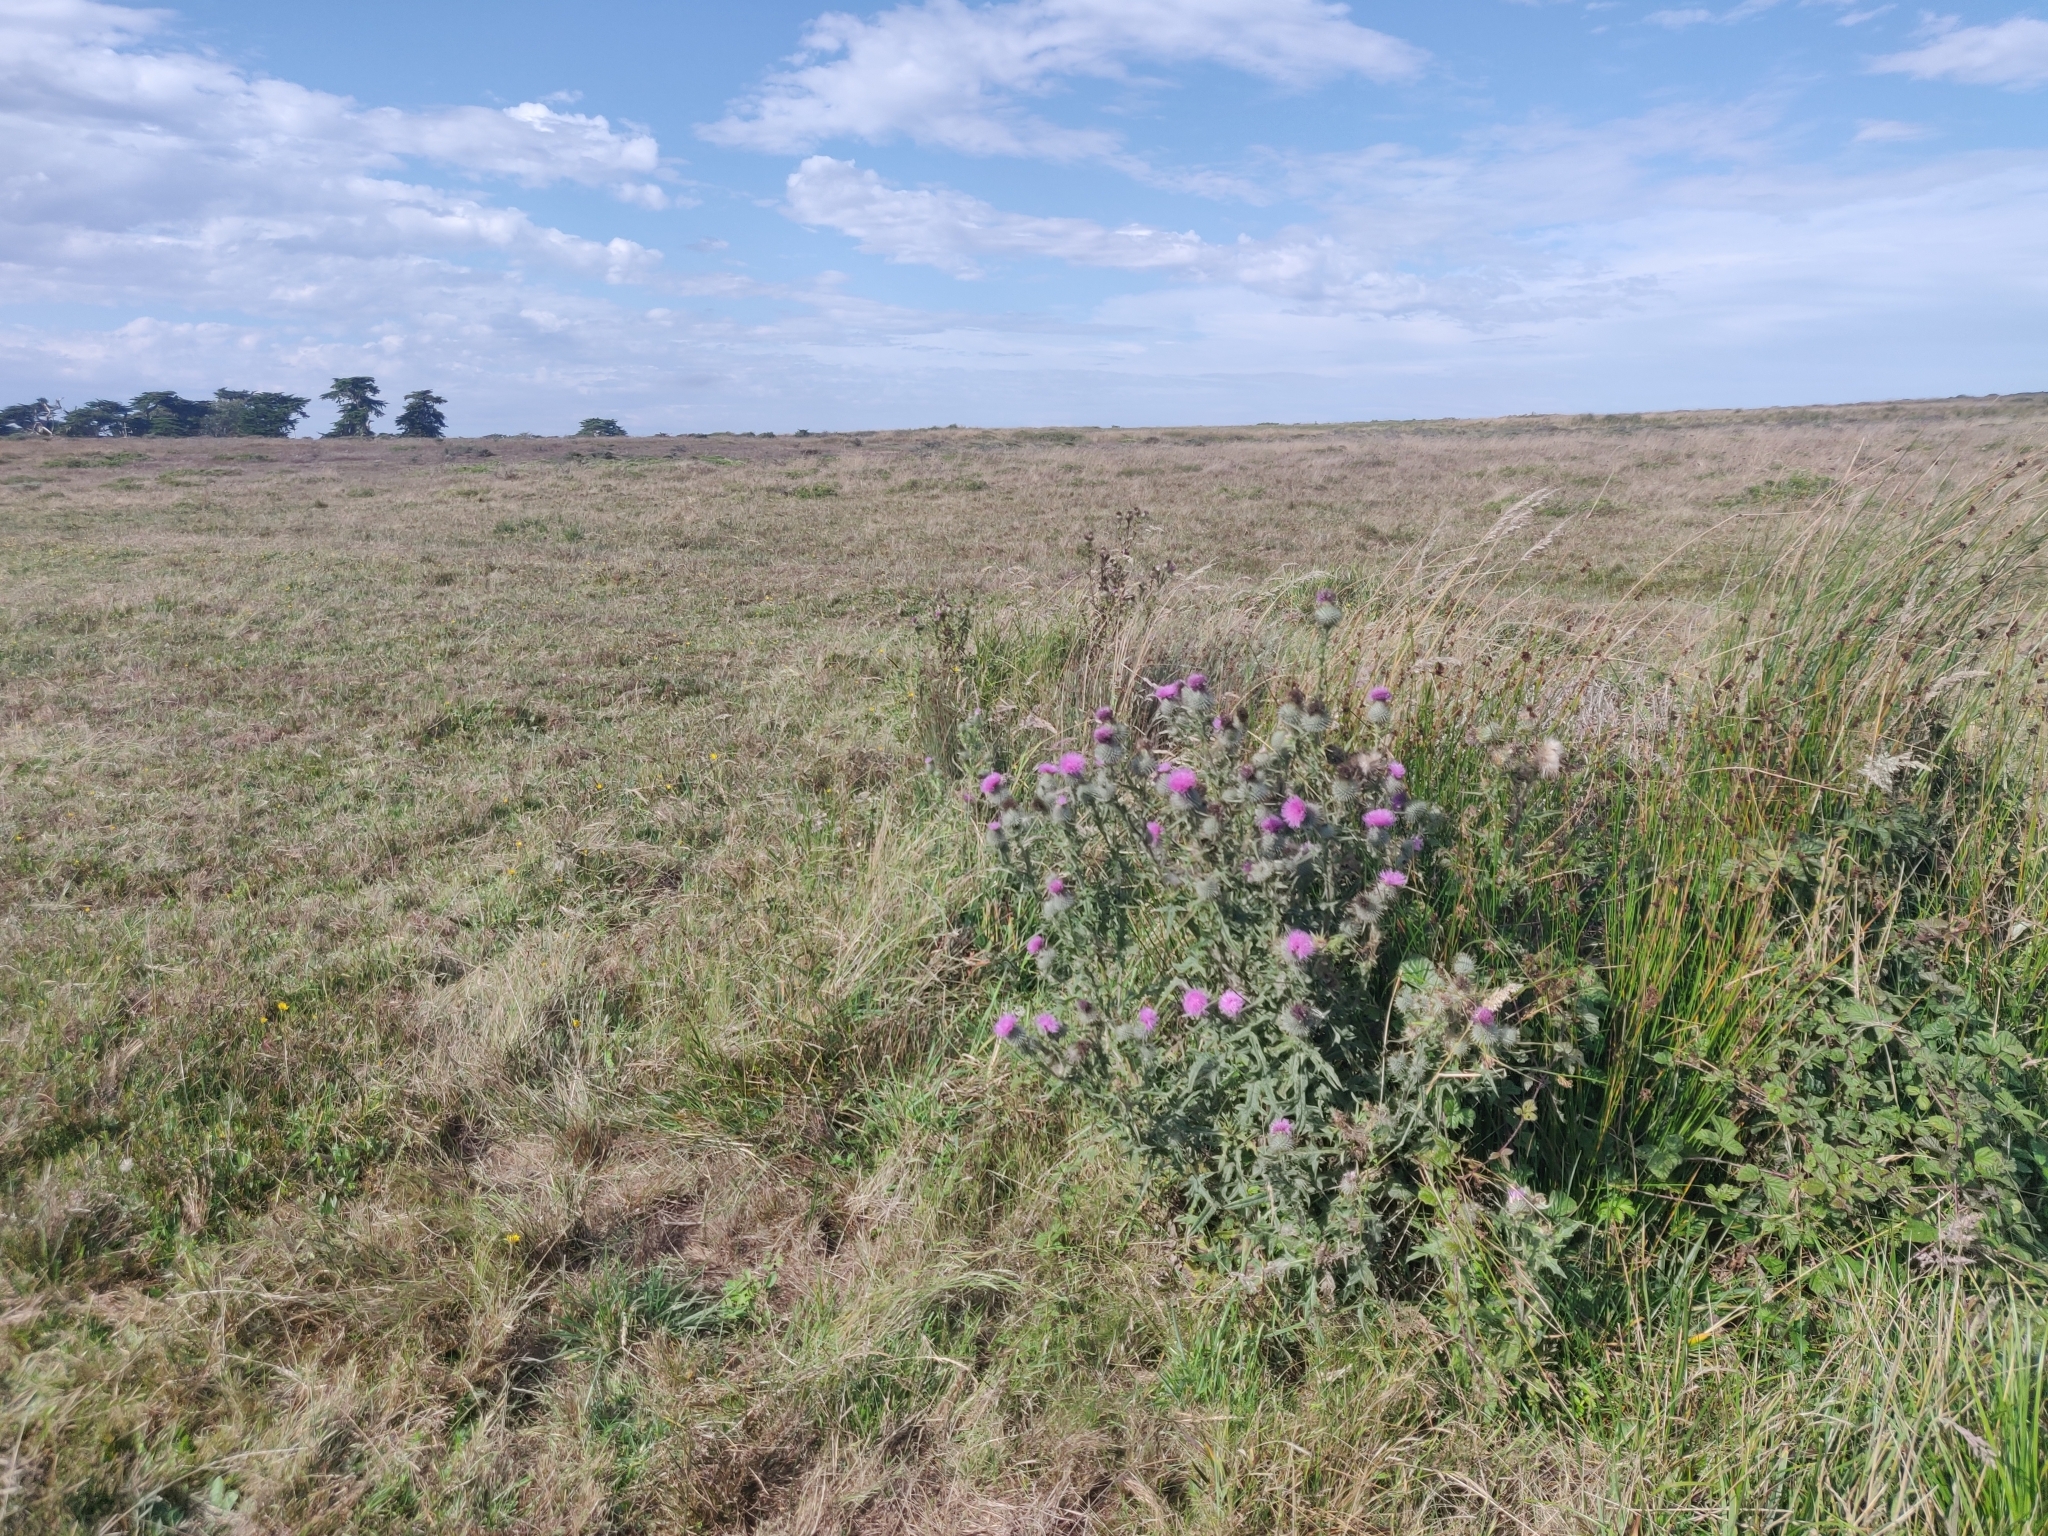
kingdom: Plantae
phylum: Tracheophyta
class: Magnoliopsida
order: Asterales
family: Asteraceae
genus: Cirsium
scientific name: Cirsium vulgare
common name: Bull thistle
